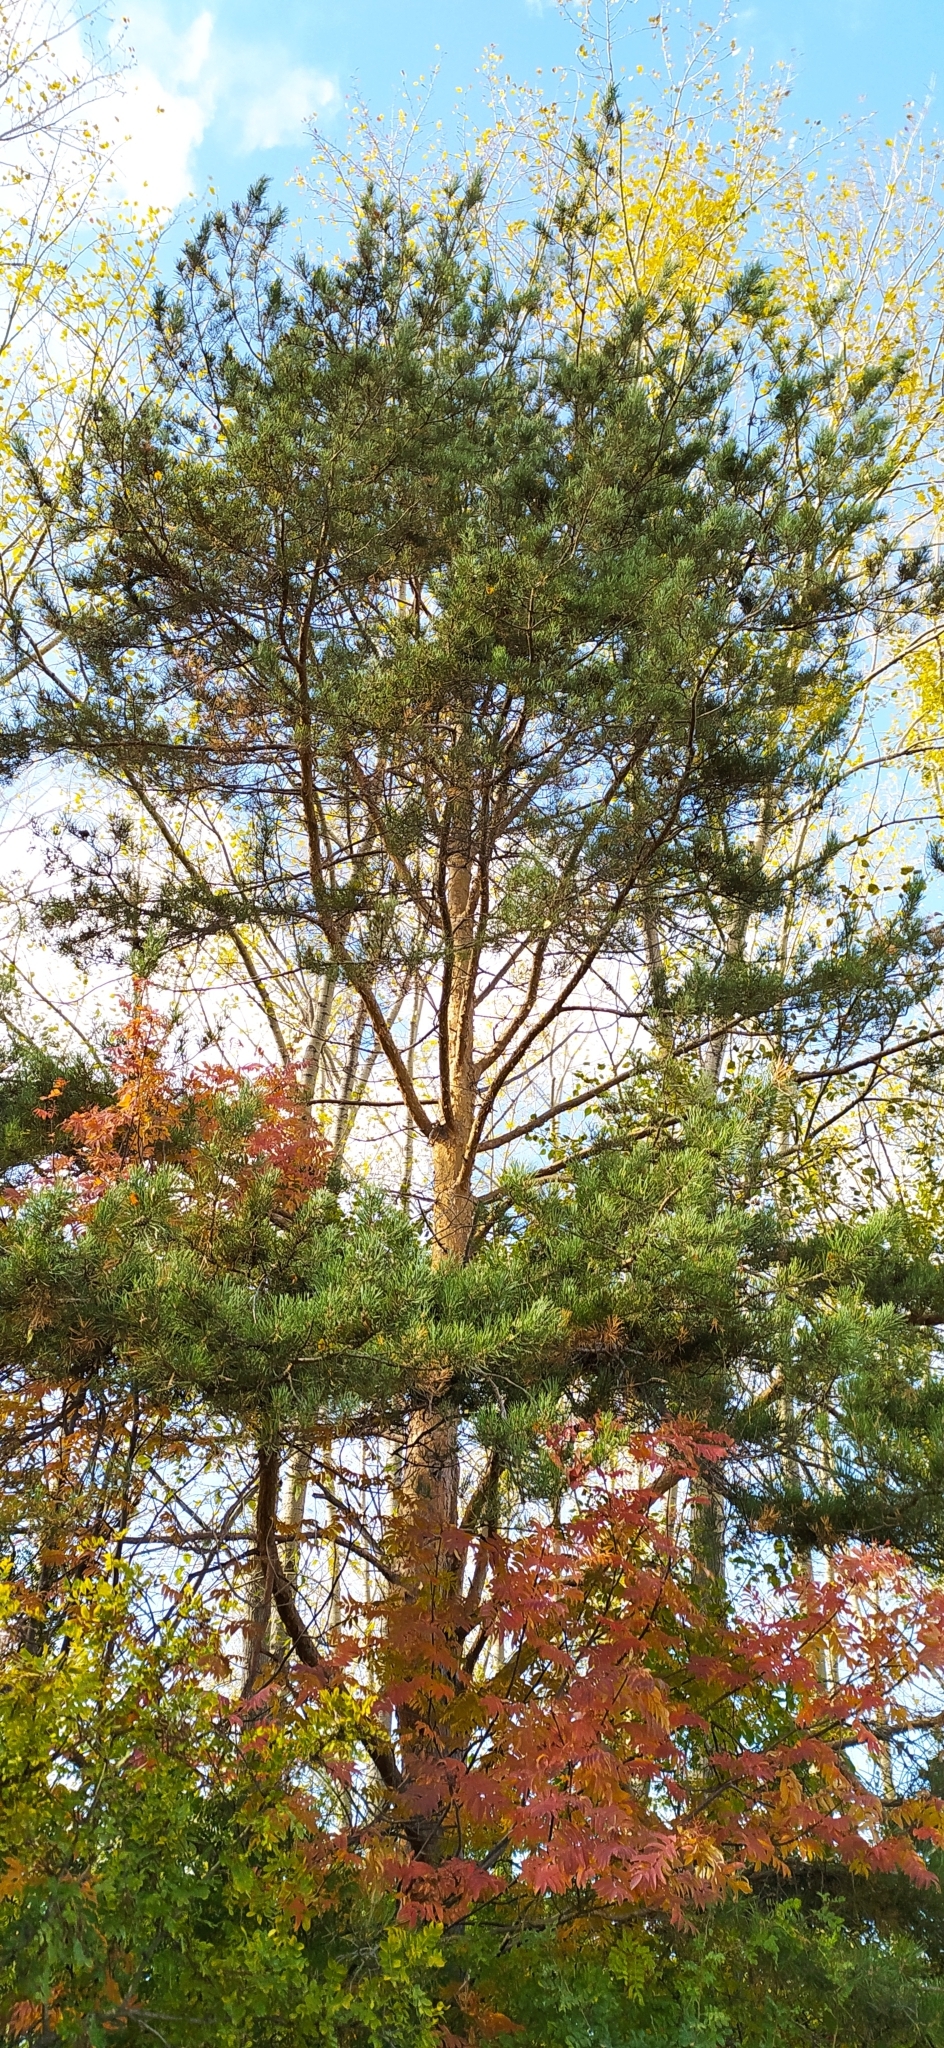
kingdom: Plantae
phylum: Tracheophyta
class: Pinopsida
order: Pinales
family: Pinaceae
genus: Pinus
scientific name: Pinus sylvestris
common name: Scots pine
